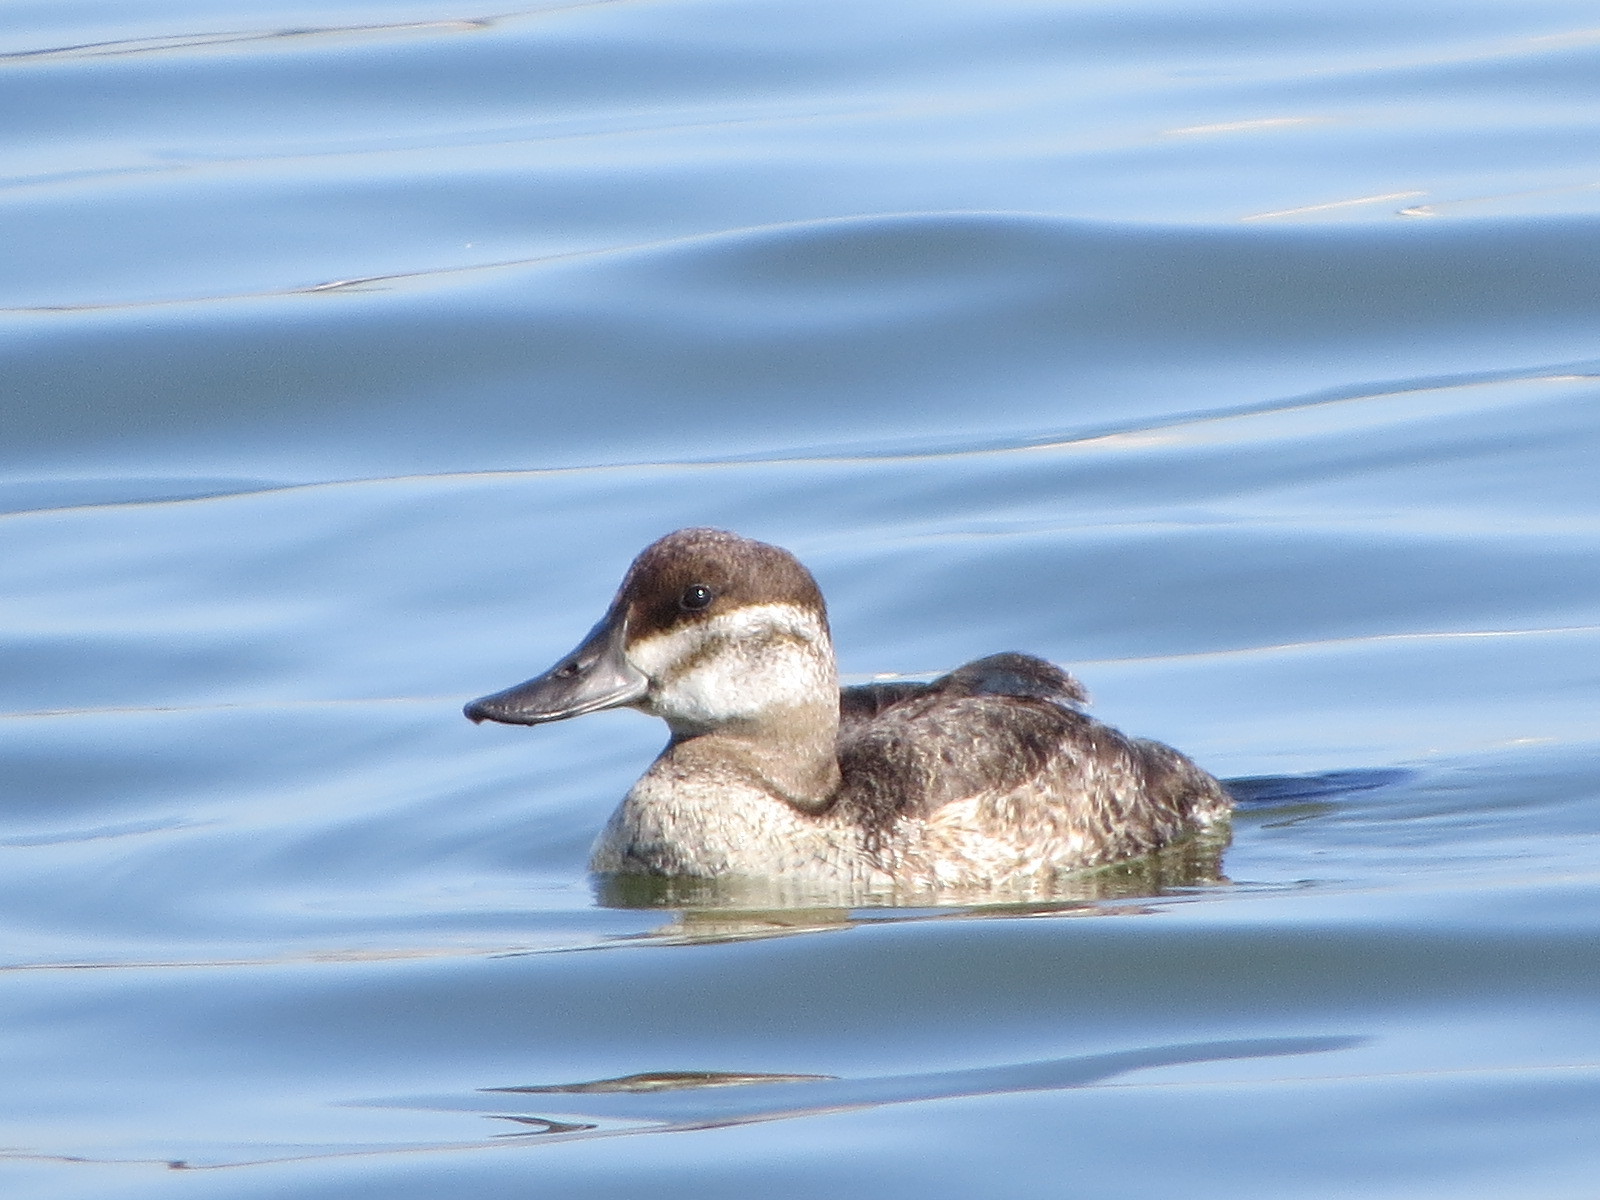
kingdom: Animalia
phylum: Chordata
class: Aves
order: Anseriformes
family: Anatidae
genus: Oxyura
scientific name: Oxyura jamaicensis
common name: Ruddy duck
